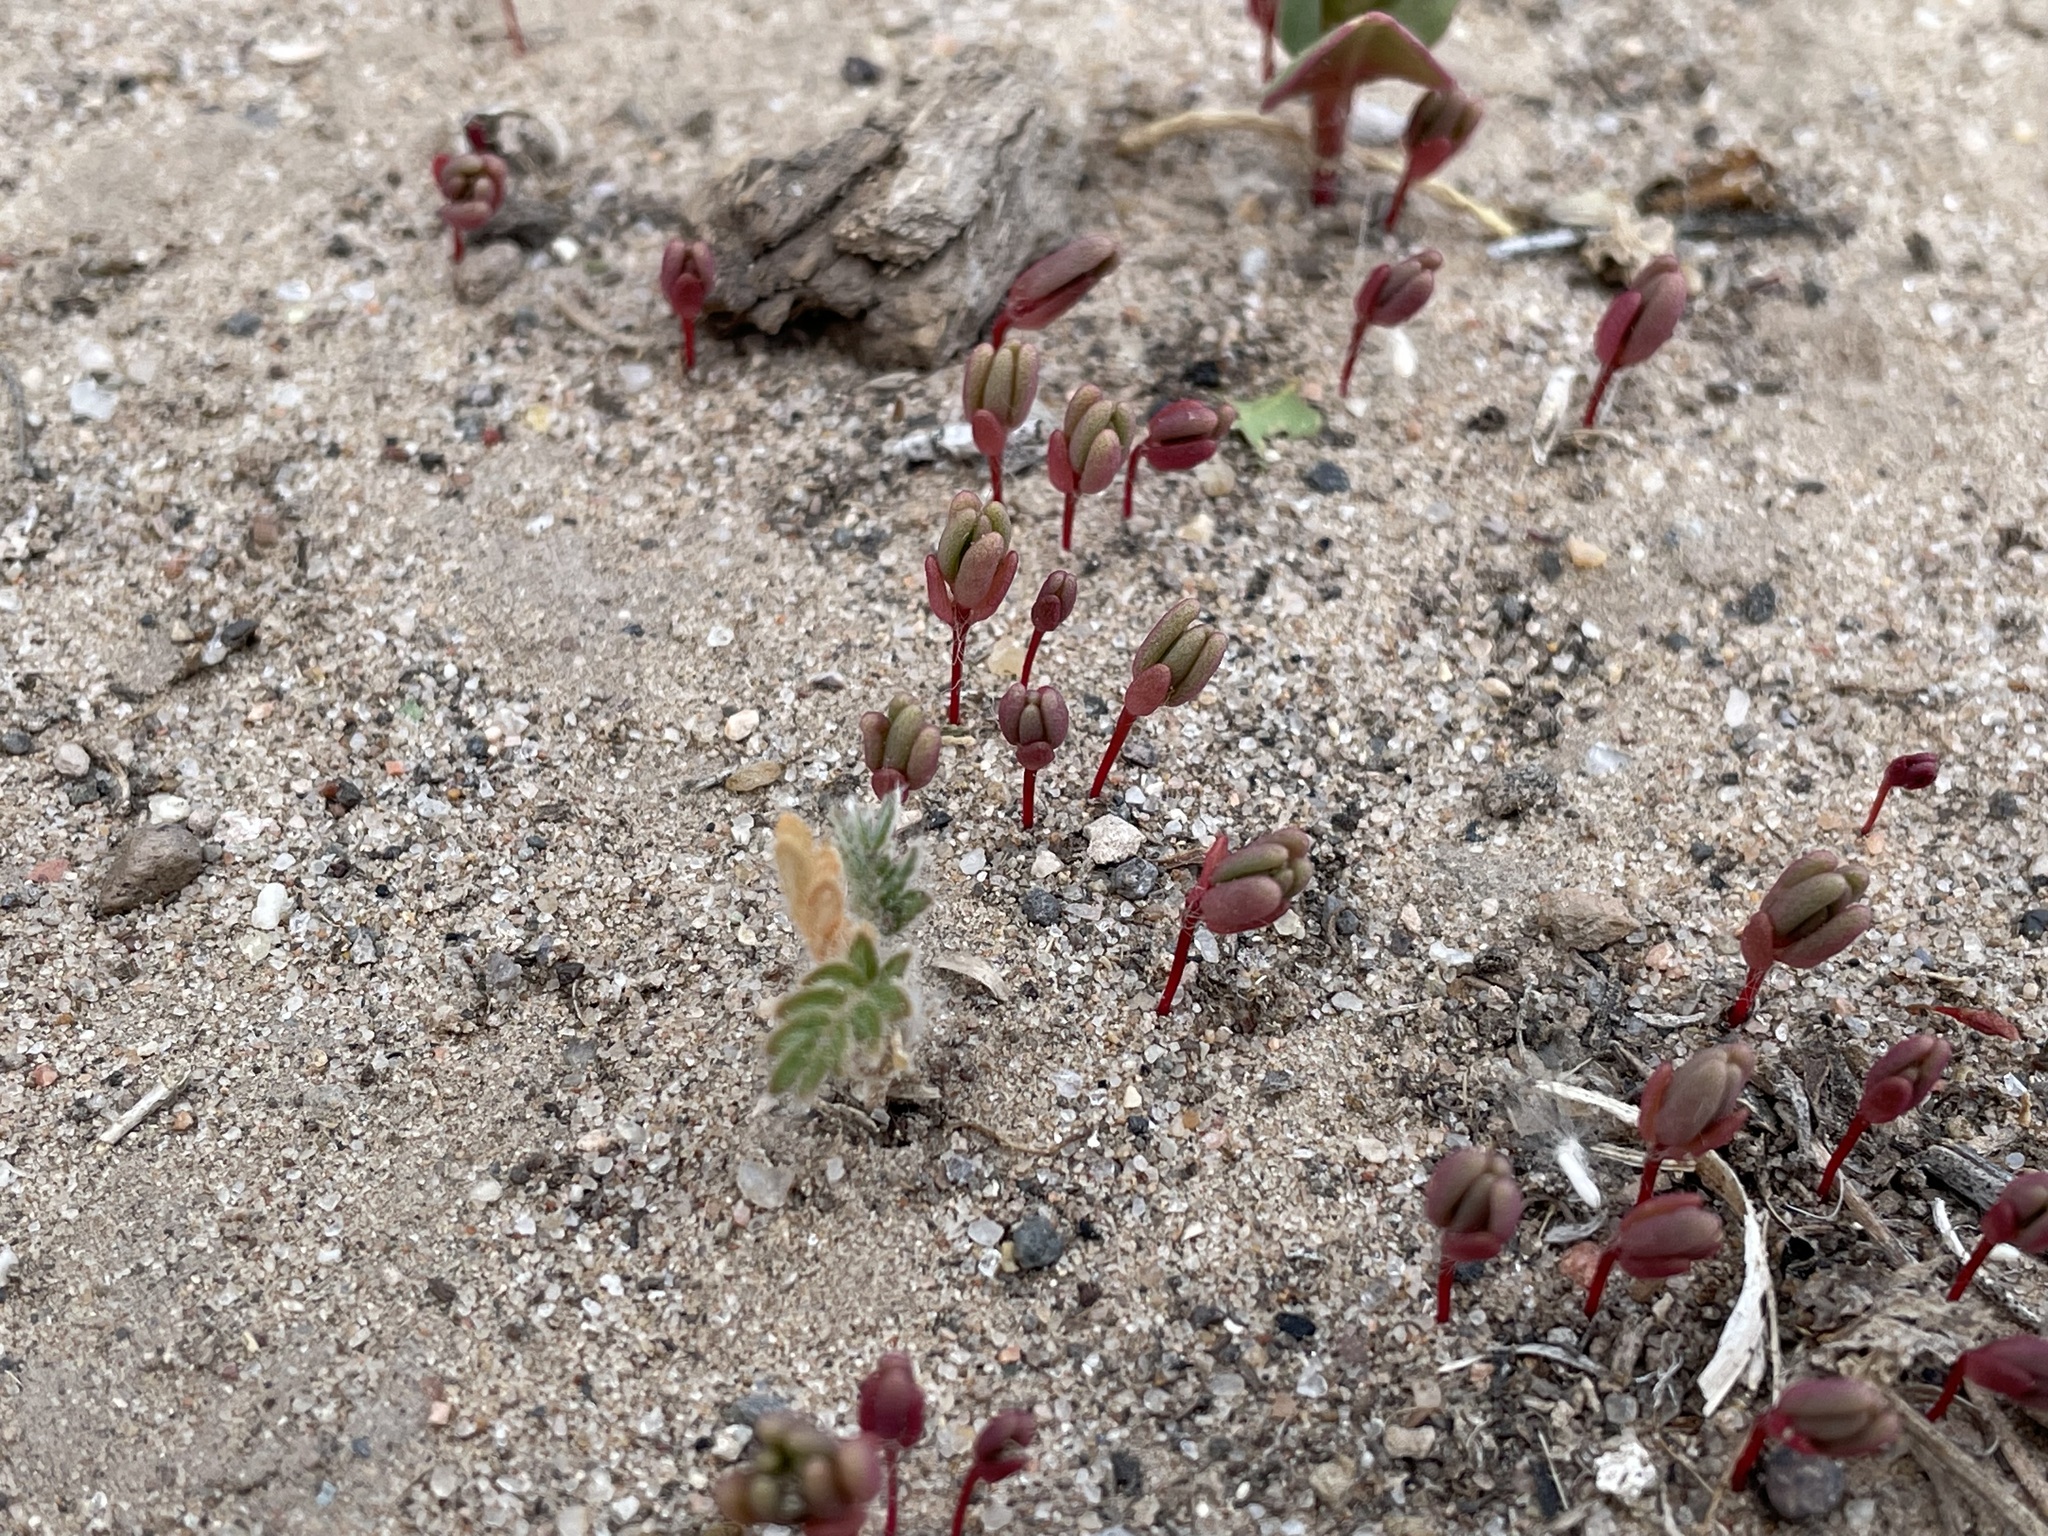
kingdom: Plantae
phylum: Tracheophyta
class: Magnoliopsida
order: Caryophyllales
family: Portulacaceae
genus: Portulaca
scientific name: Portulaca halimoides
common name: Silk cotton purslane
